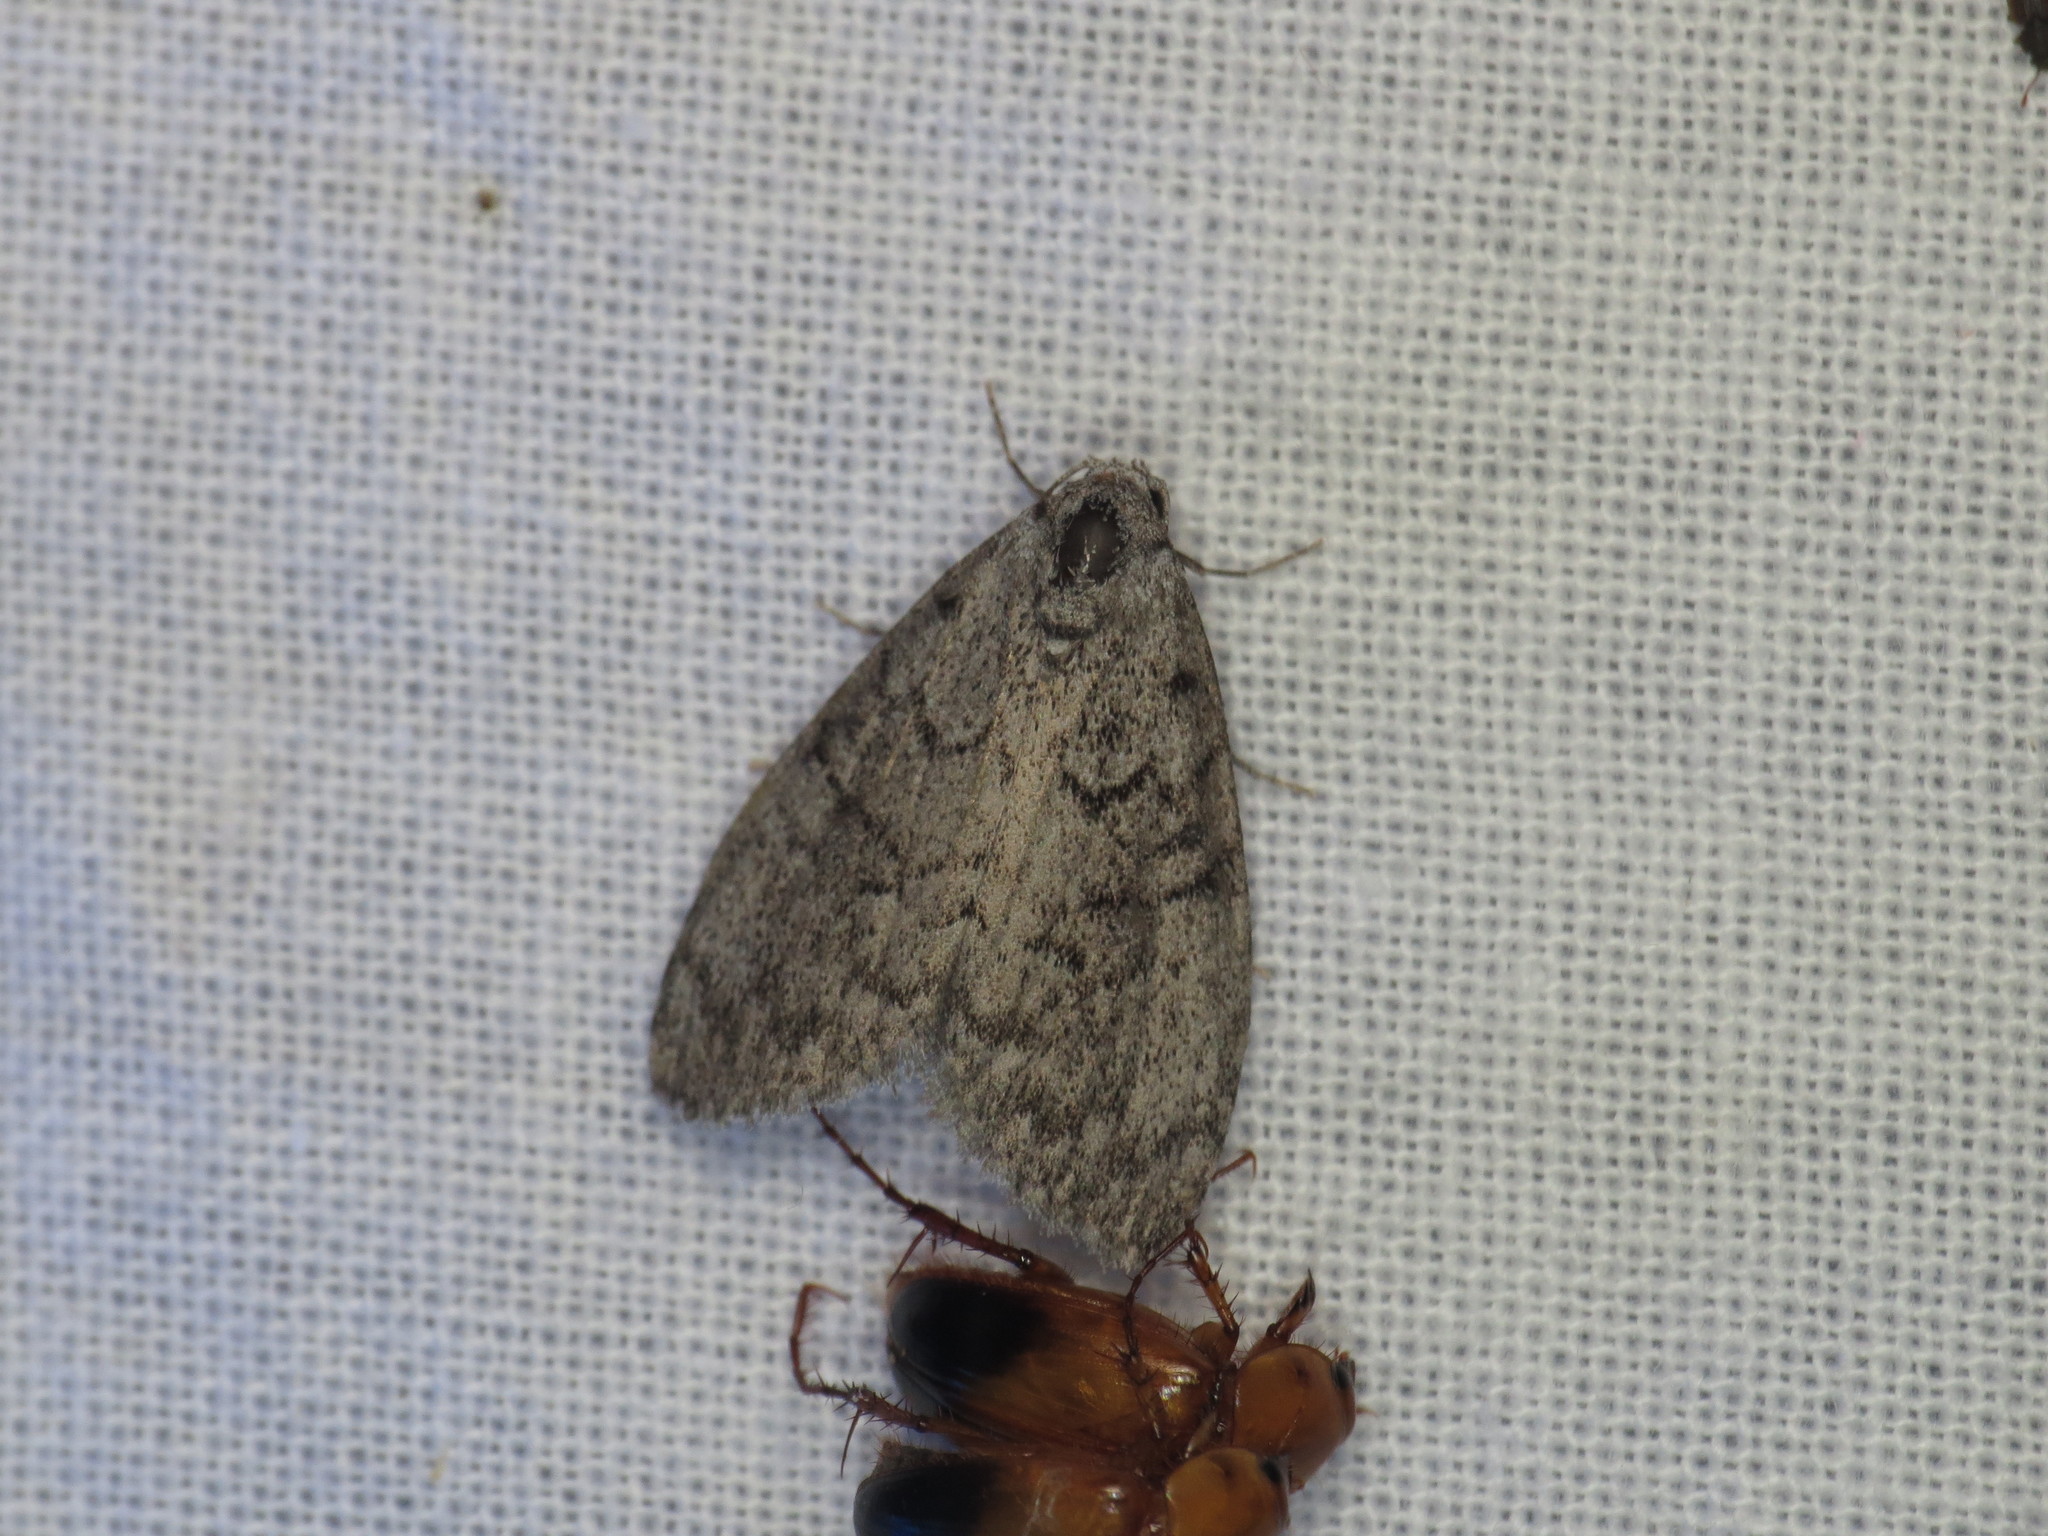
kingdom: Animalia
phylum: Arthropoda
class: Insecta
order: Lepidoptera
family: Nolidae
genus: Uraba
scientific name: Uraba lugens
